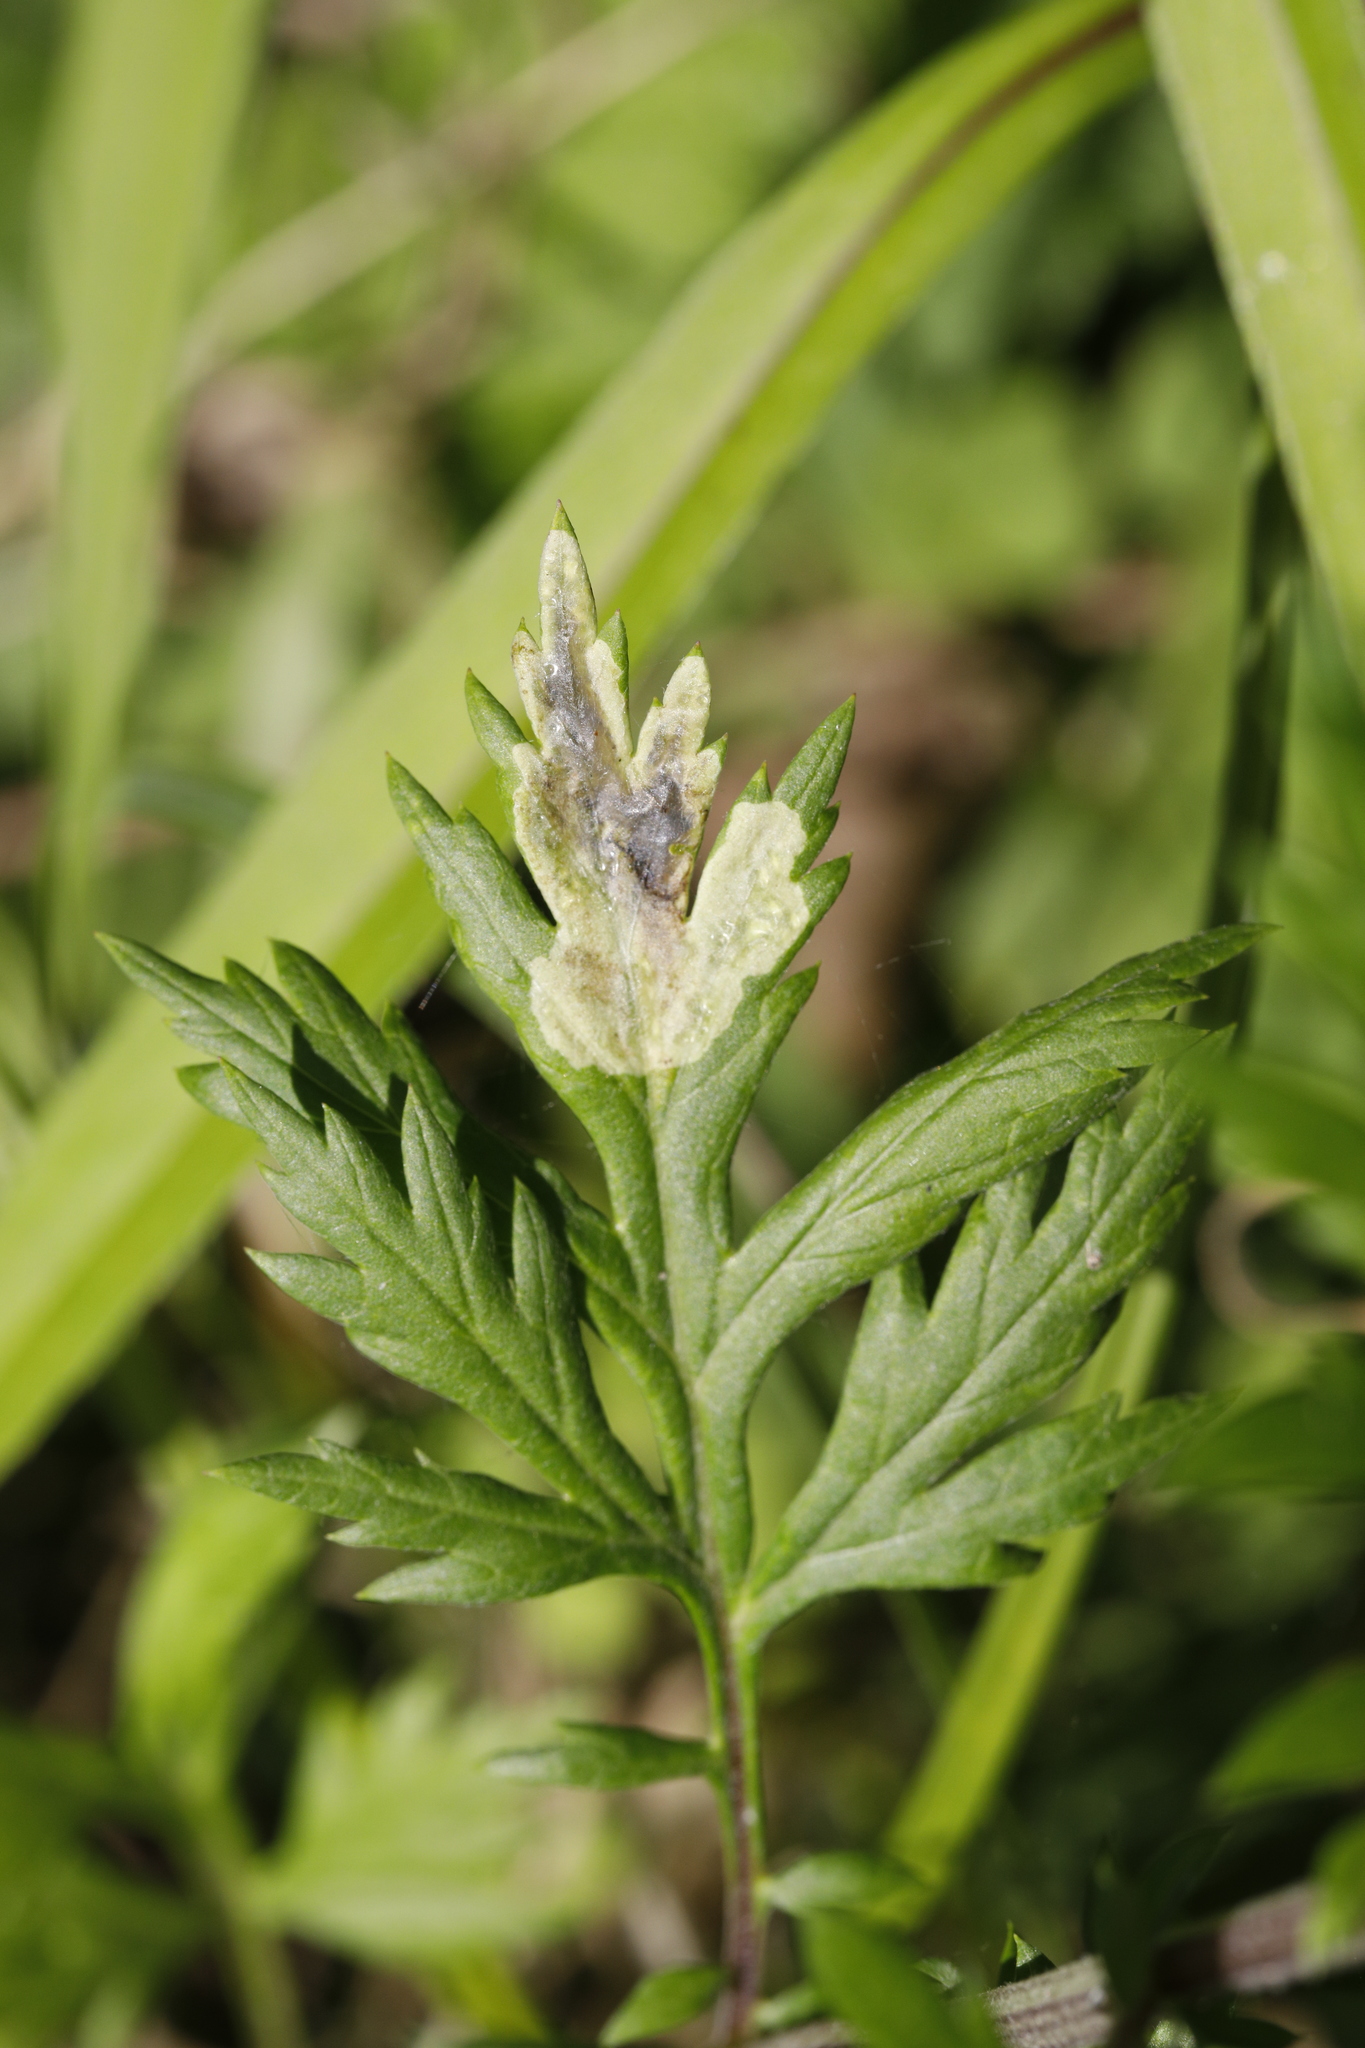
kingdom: Animalia
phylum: Arthropoda
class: Insecta
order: Diptera
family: Agromyzidae
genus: Calycomyza
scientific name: Calycomyza artemisiae
